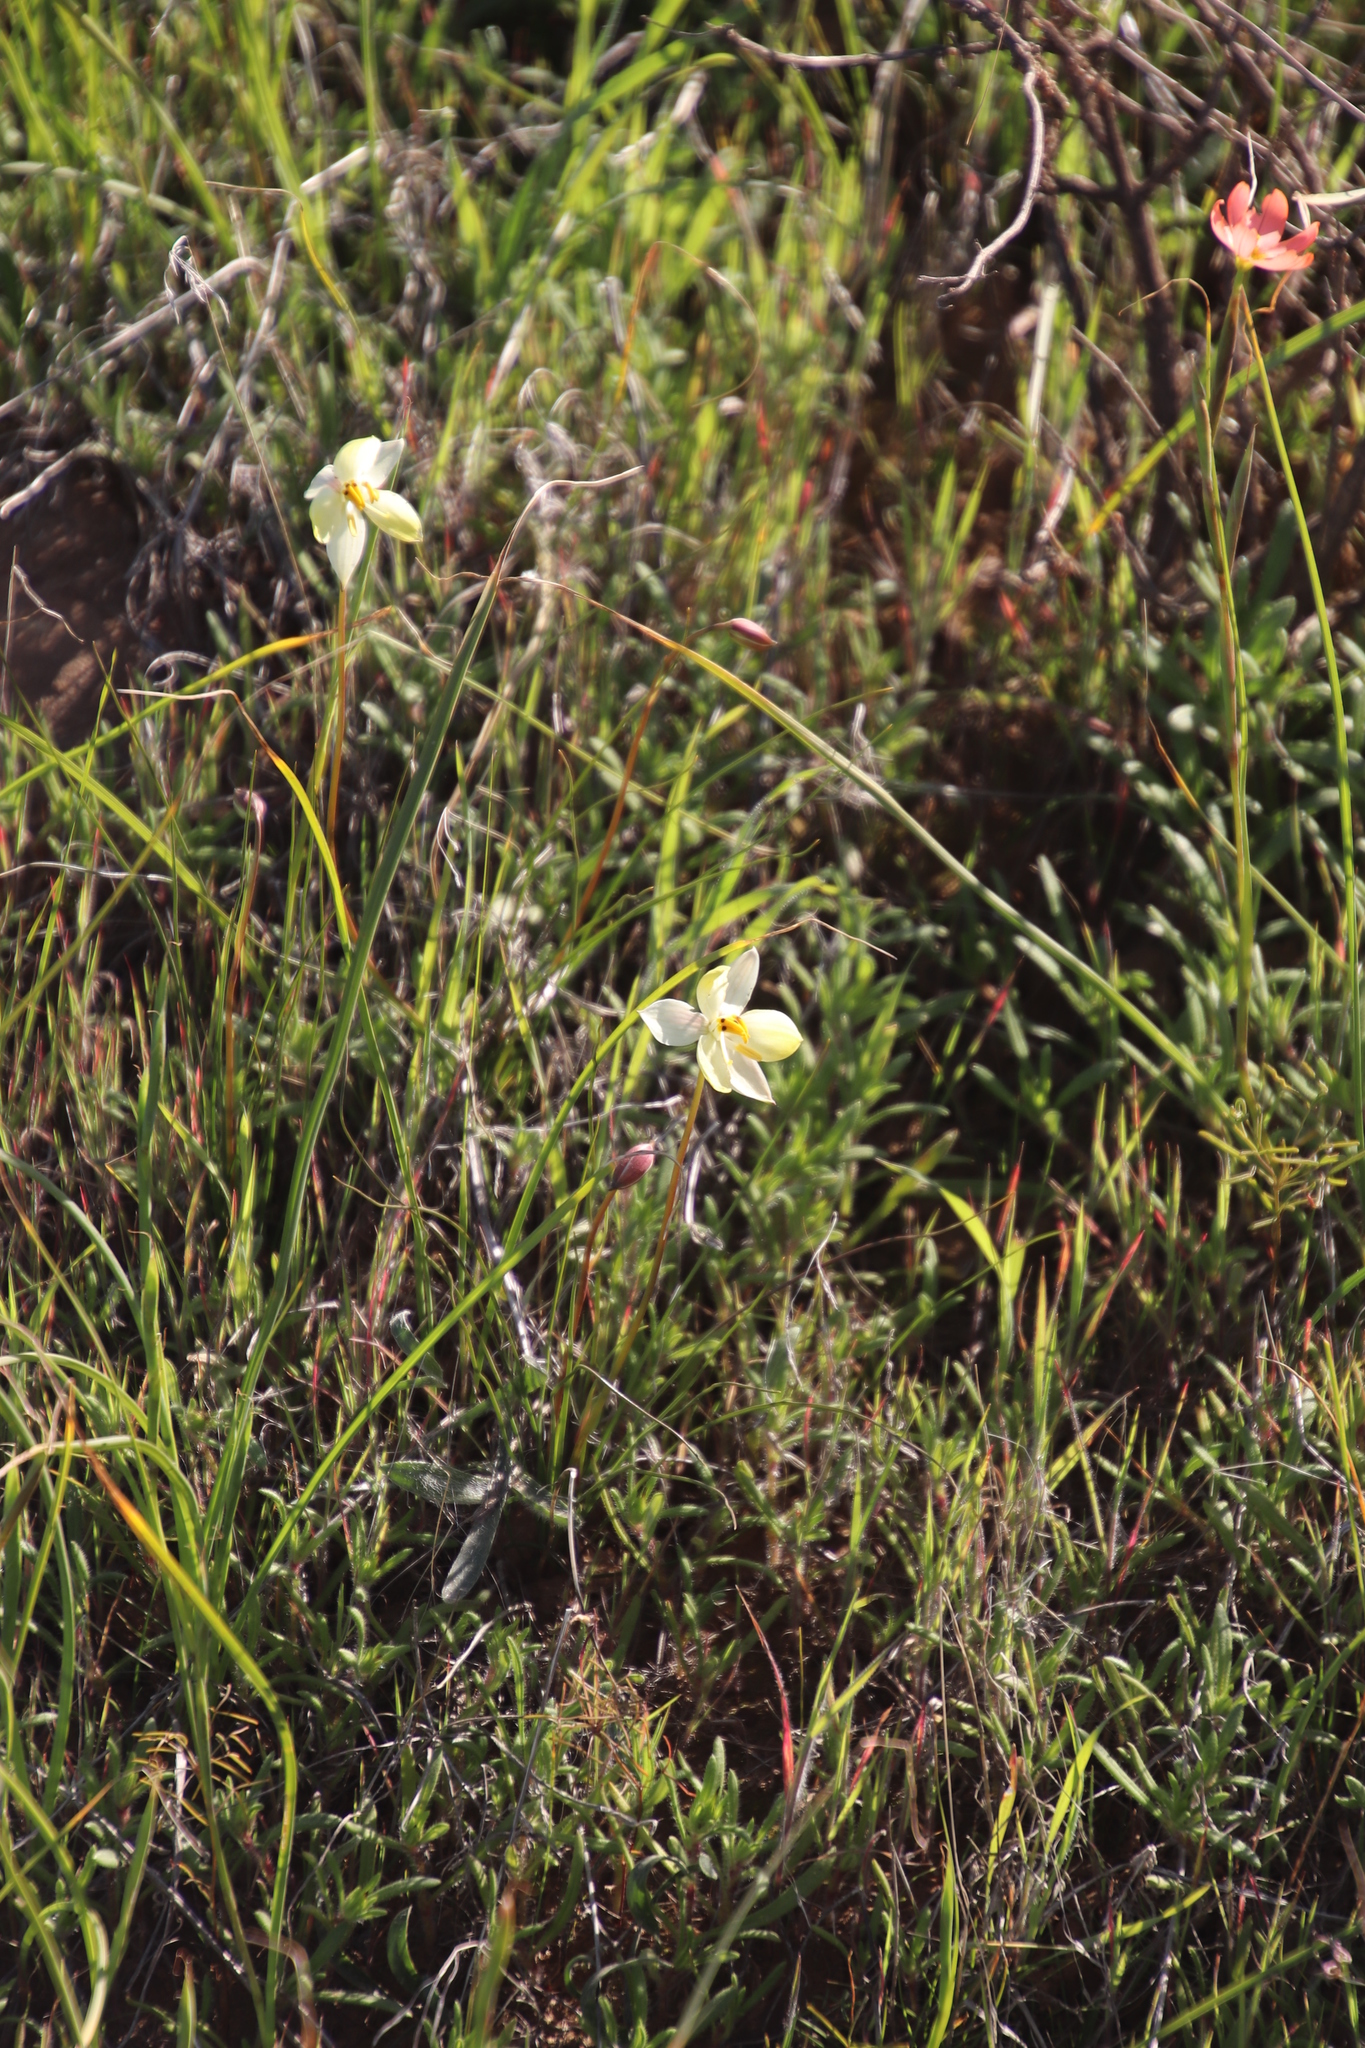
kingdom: Plantae
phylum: Tracheophyta
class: Liliopsida
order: Asparagales
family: Tecophilaeaceae
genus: Cyanella
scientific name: Cyanella alba
